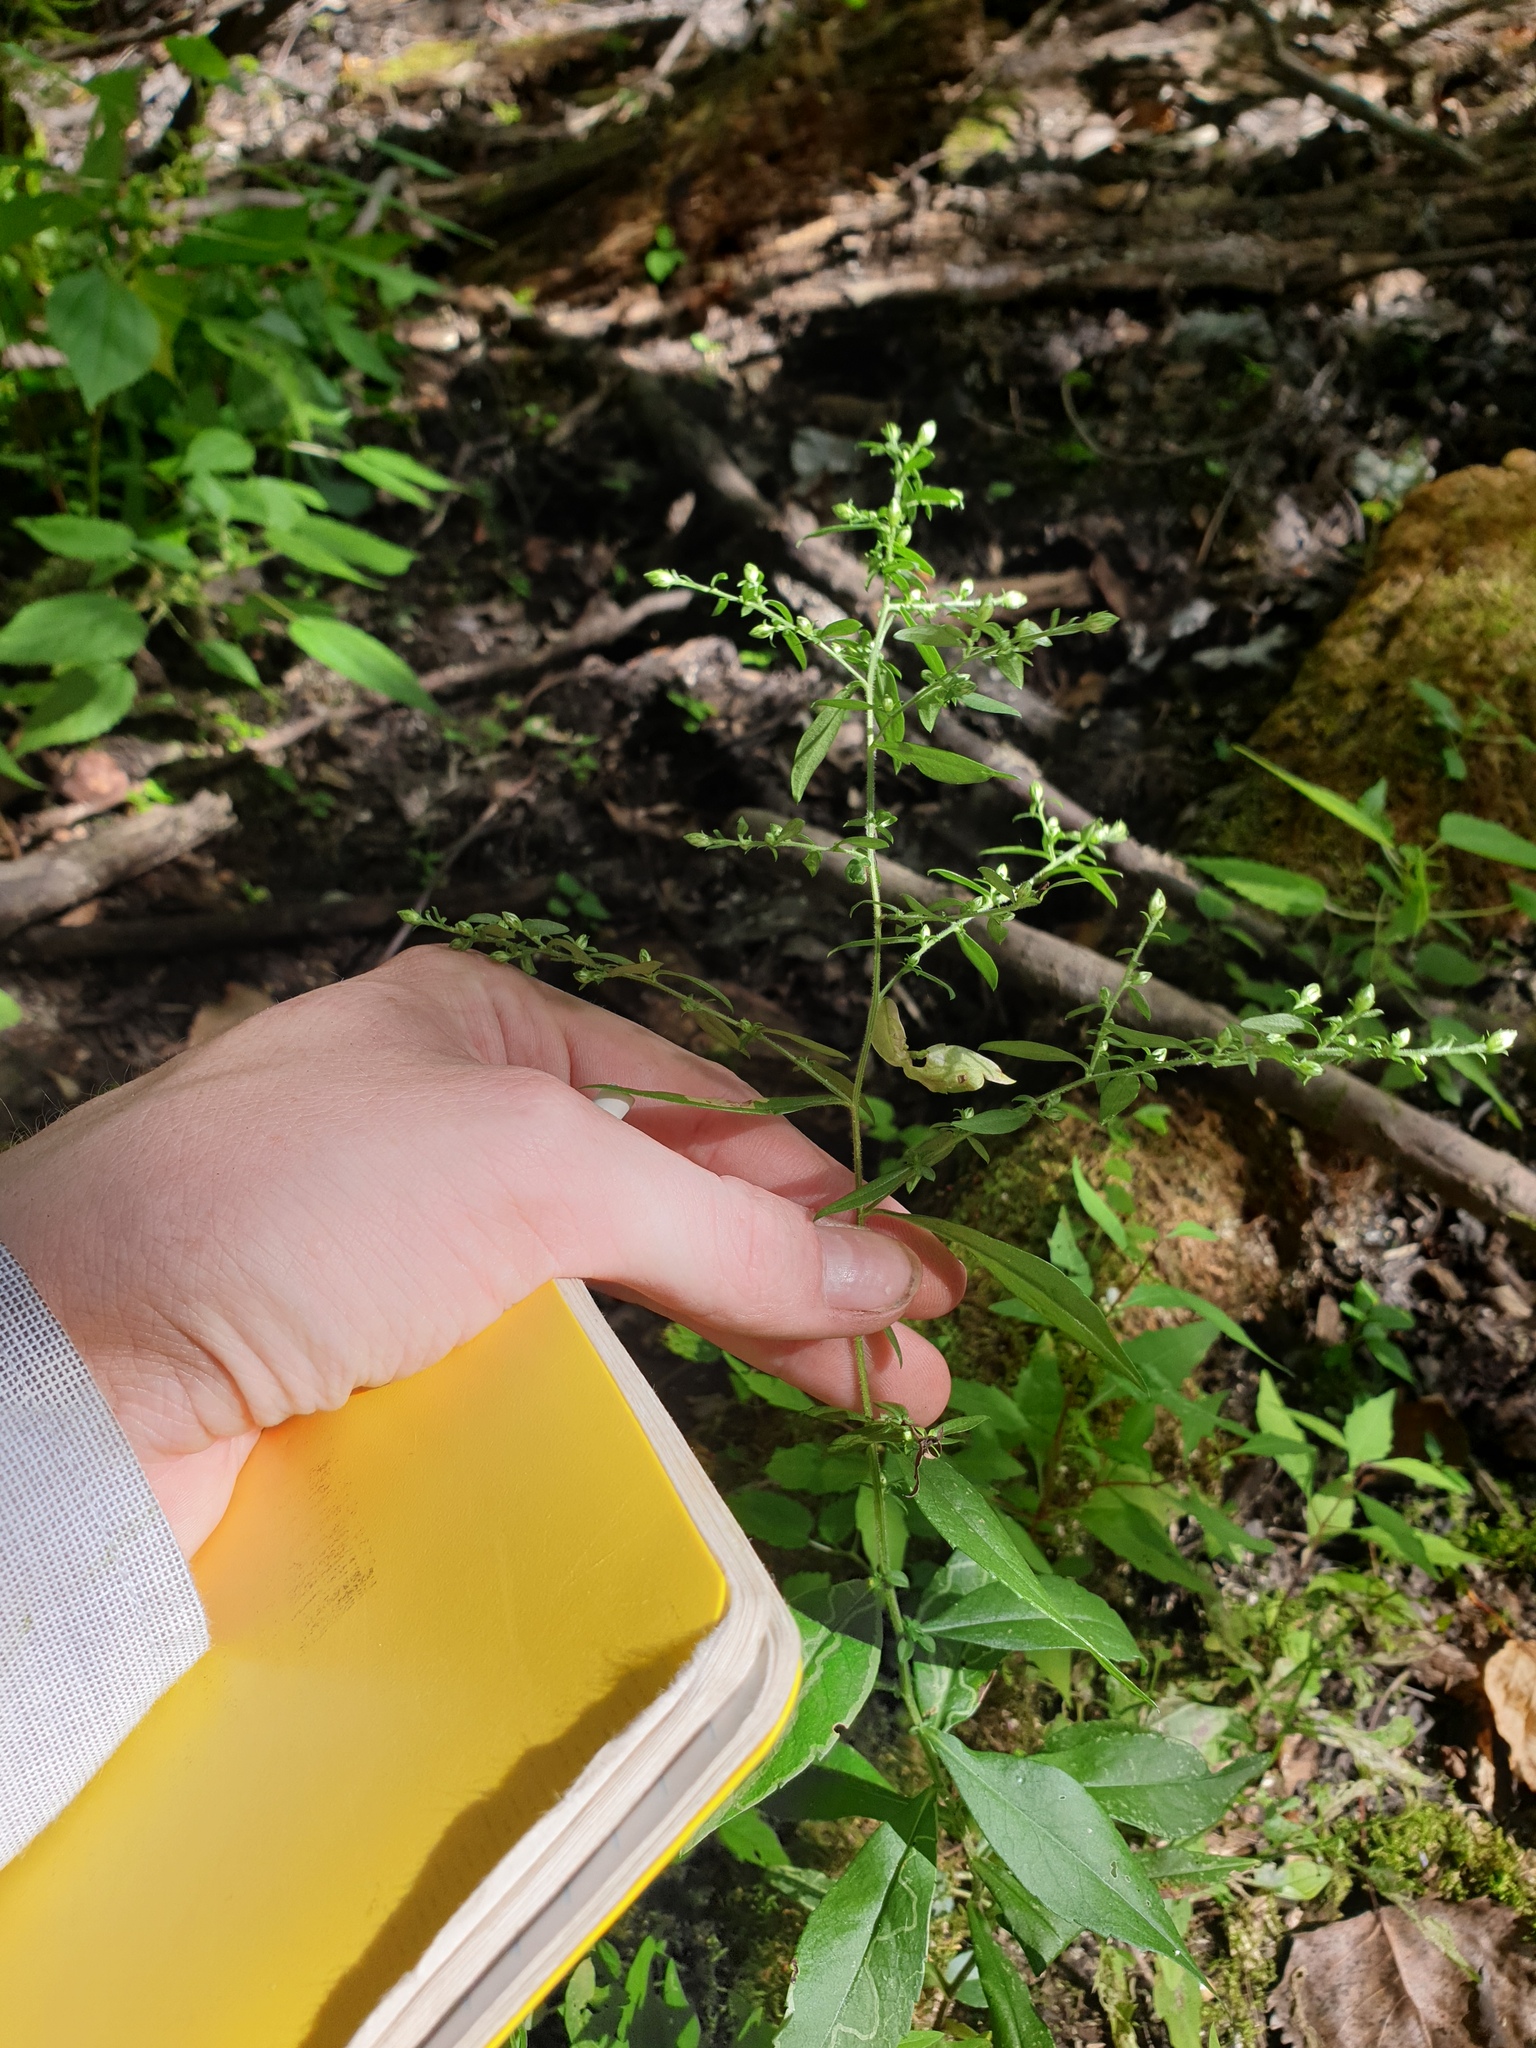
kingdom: Plantae
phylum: Tracheophyta
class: Magnoliopsida
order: Asterales
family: Asteraceae
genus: Symphyotrichum
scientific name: Symphyotrichum lateriflorum
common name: Calico aster
